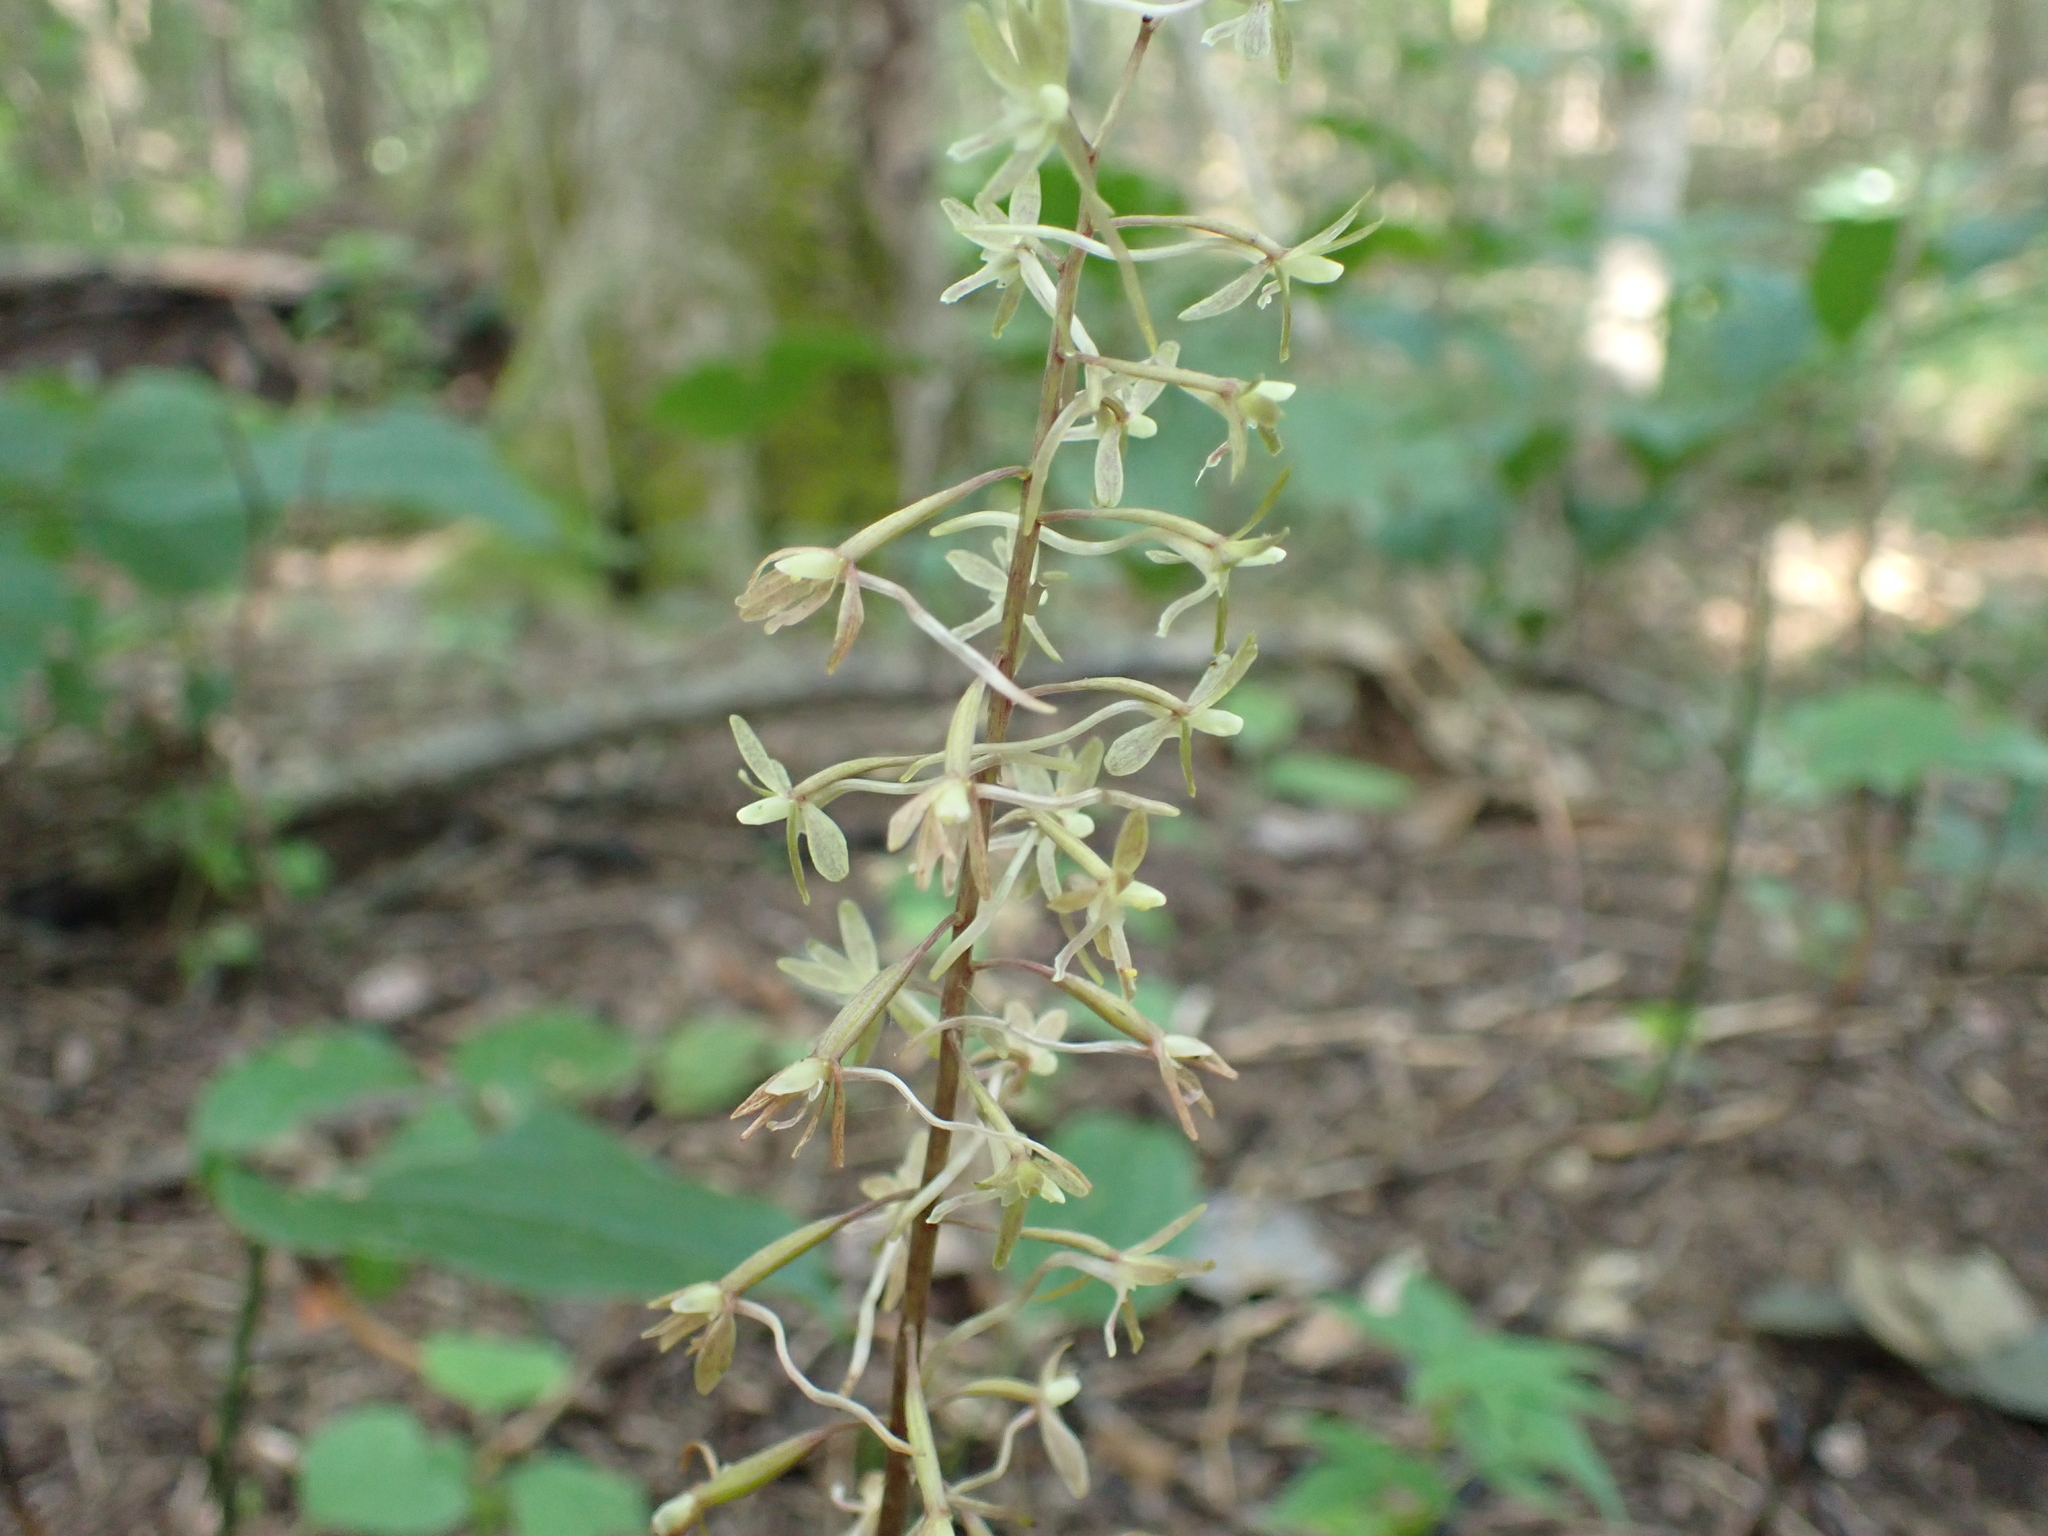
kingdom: Plantae
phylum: Tracheophyta
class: Liliopsida
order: Asparagales
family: Orchidaceae
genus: Tipularia
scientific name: Tipularia discolor
